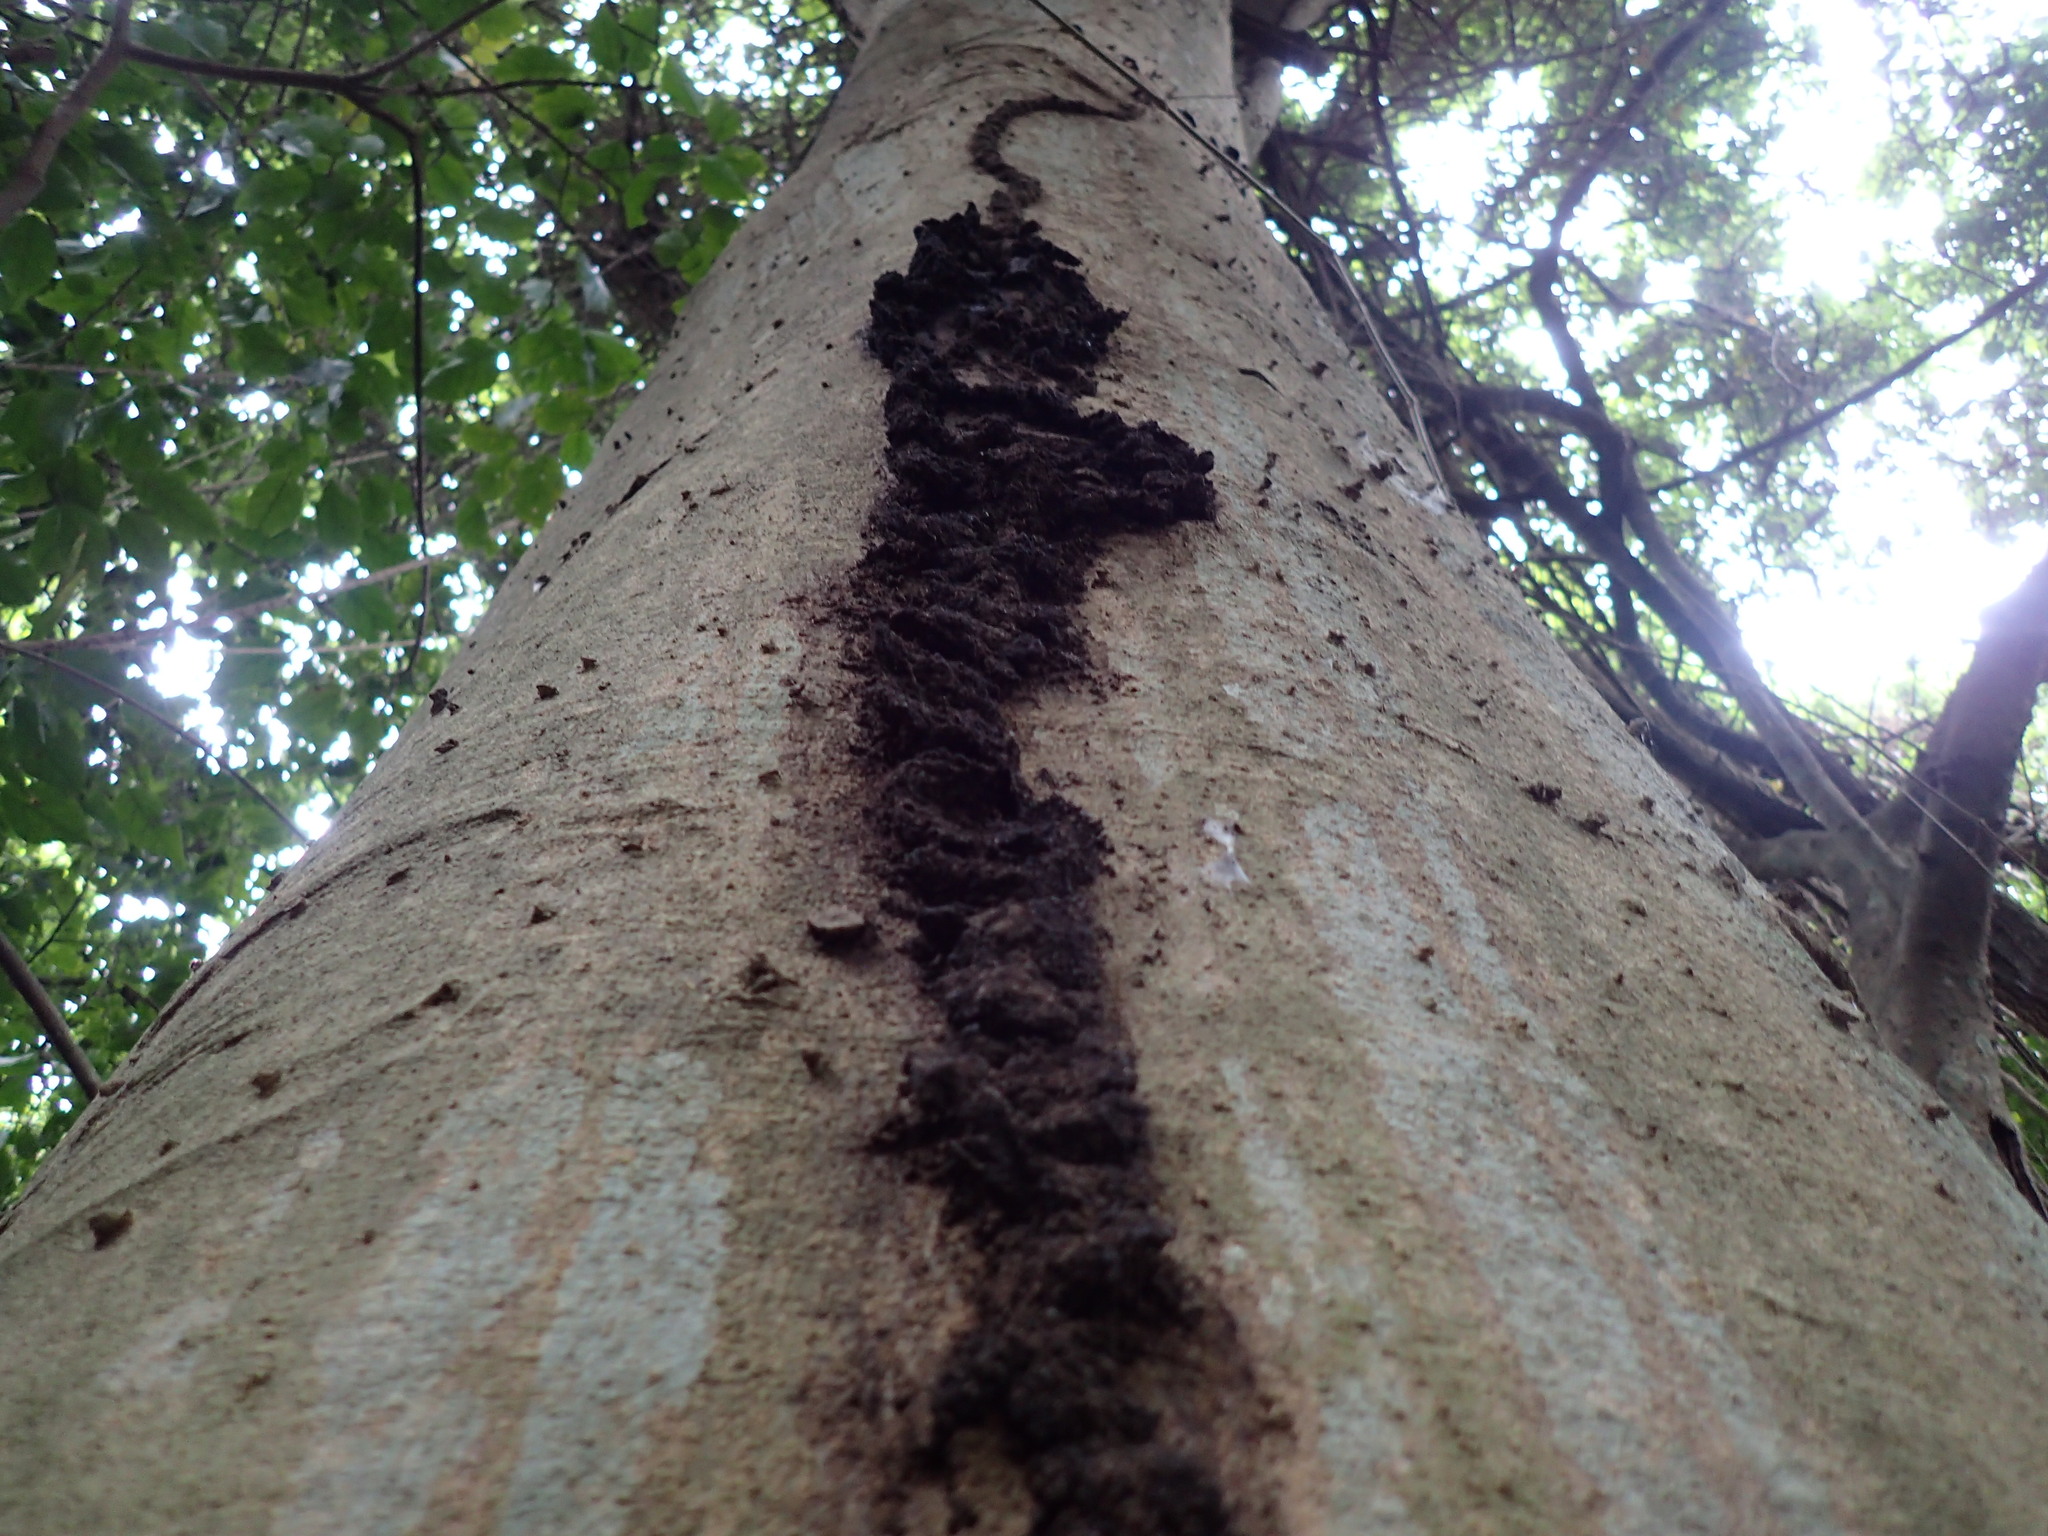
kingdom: Animalia
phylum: Arthropoda
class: Insecta
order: Blattodea
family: Rhinotermitidae
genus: Schedorhinotermes
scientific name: Schedorhinotermes lamanianus
